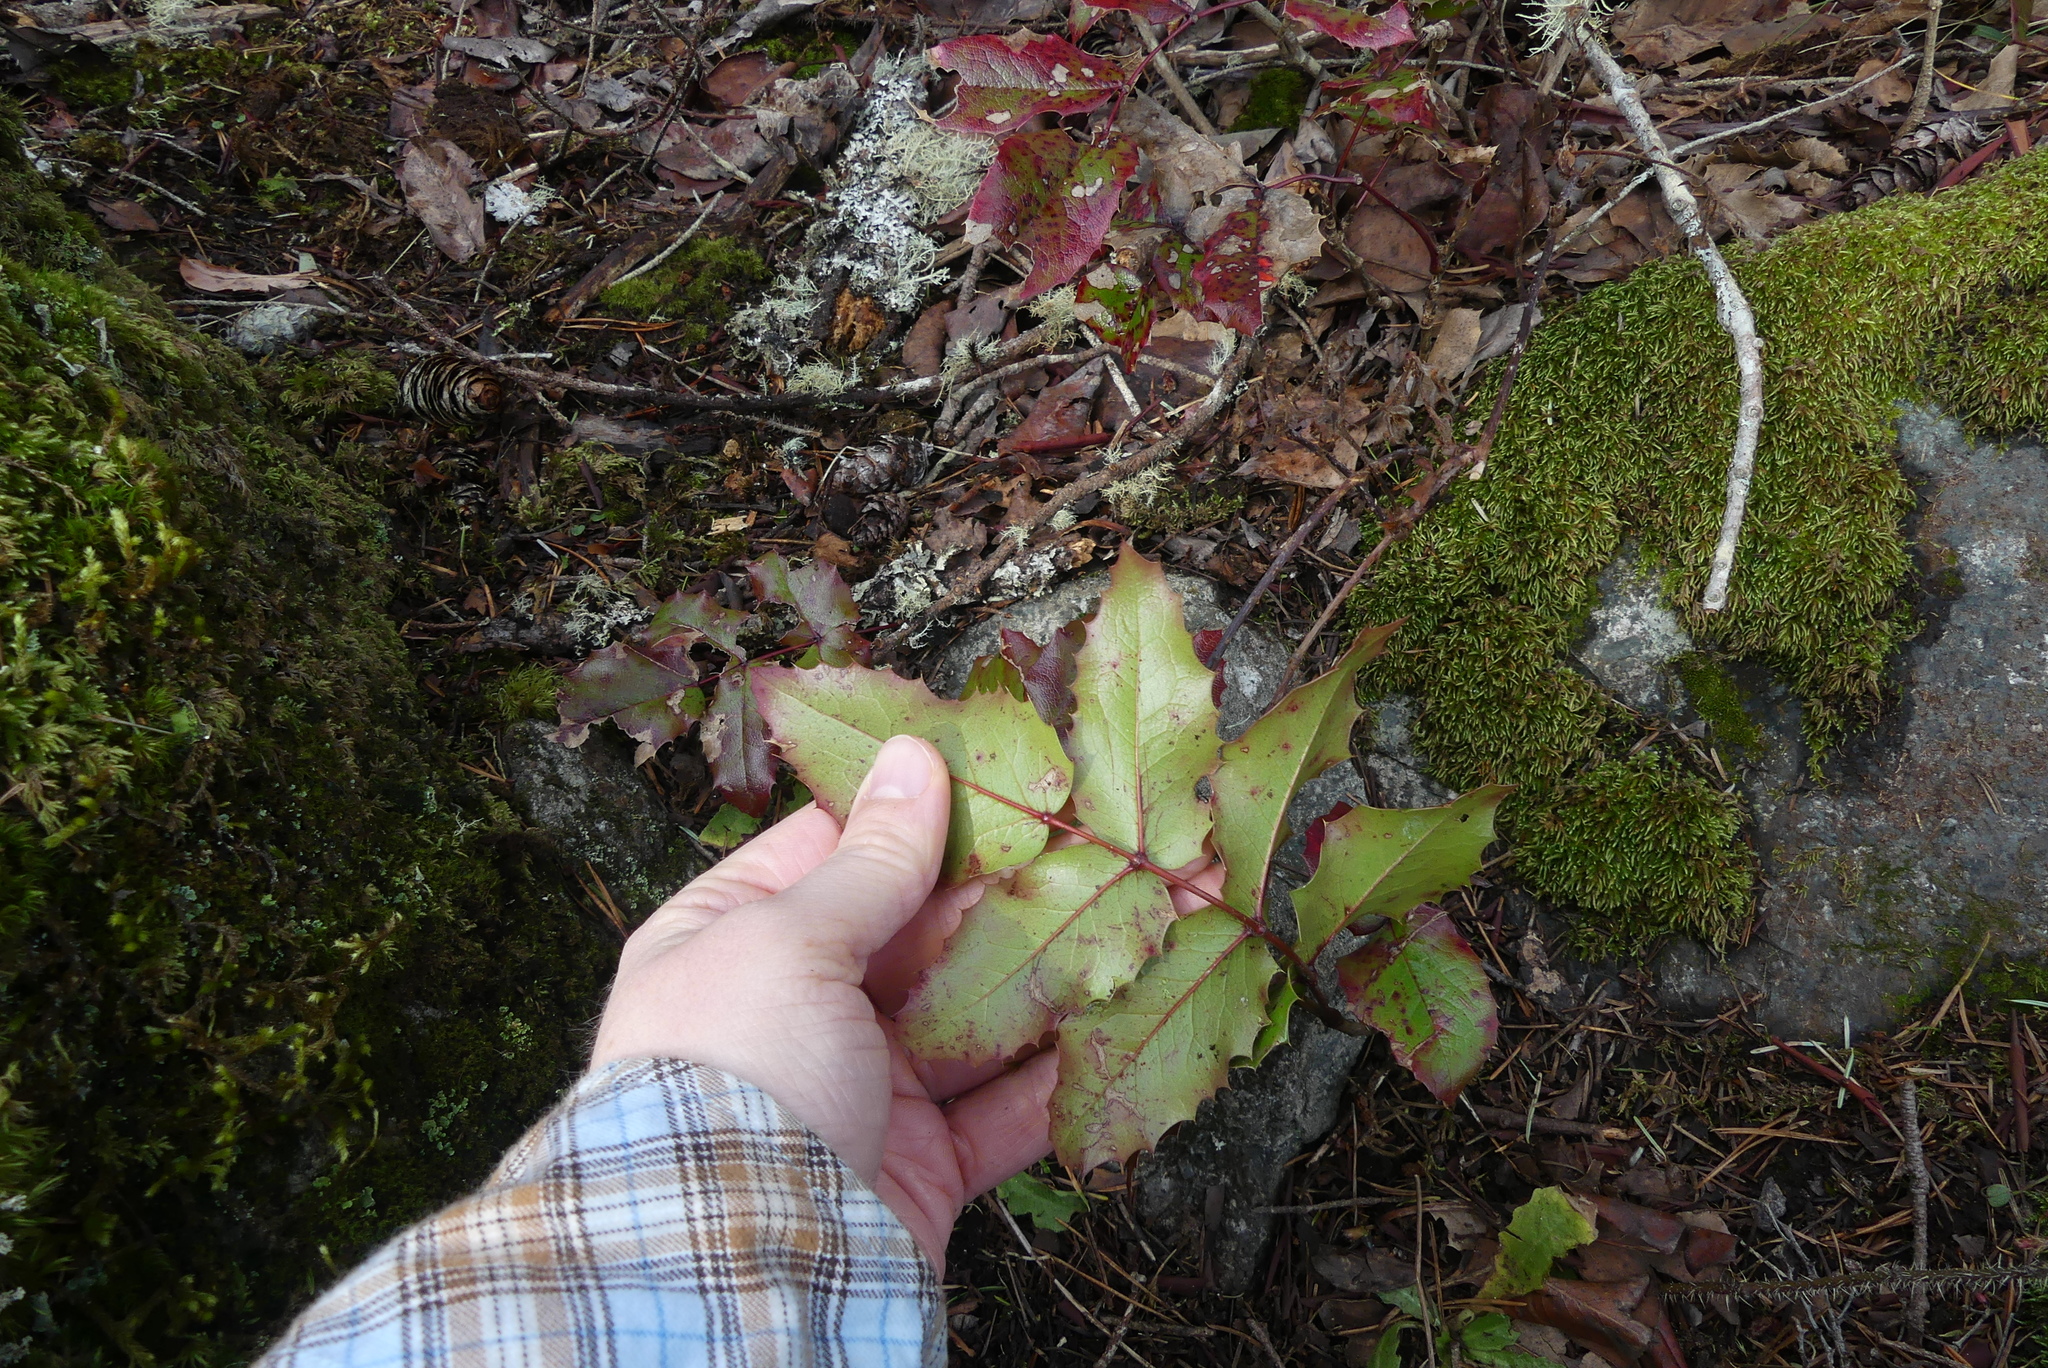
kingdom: Plantae
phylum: Tracheophyta
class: Magnoliopsida
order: Ranunculales
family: Berberidaceae
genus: Mahonia
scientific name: Mahonia aquifolium
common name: Oregon-grape
